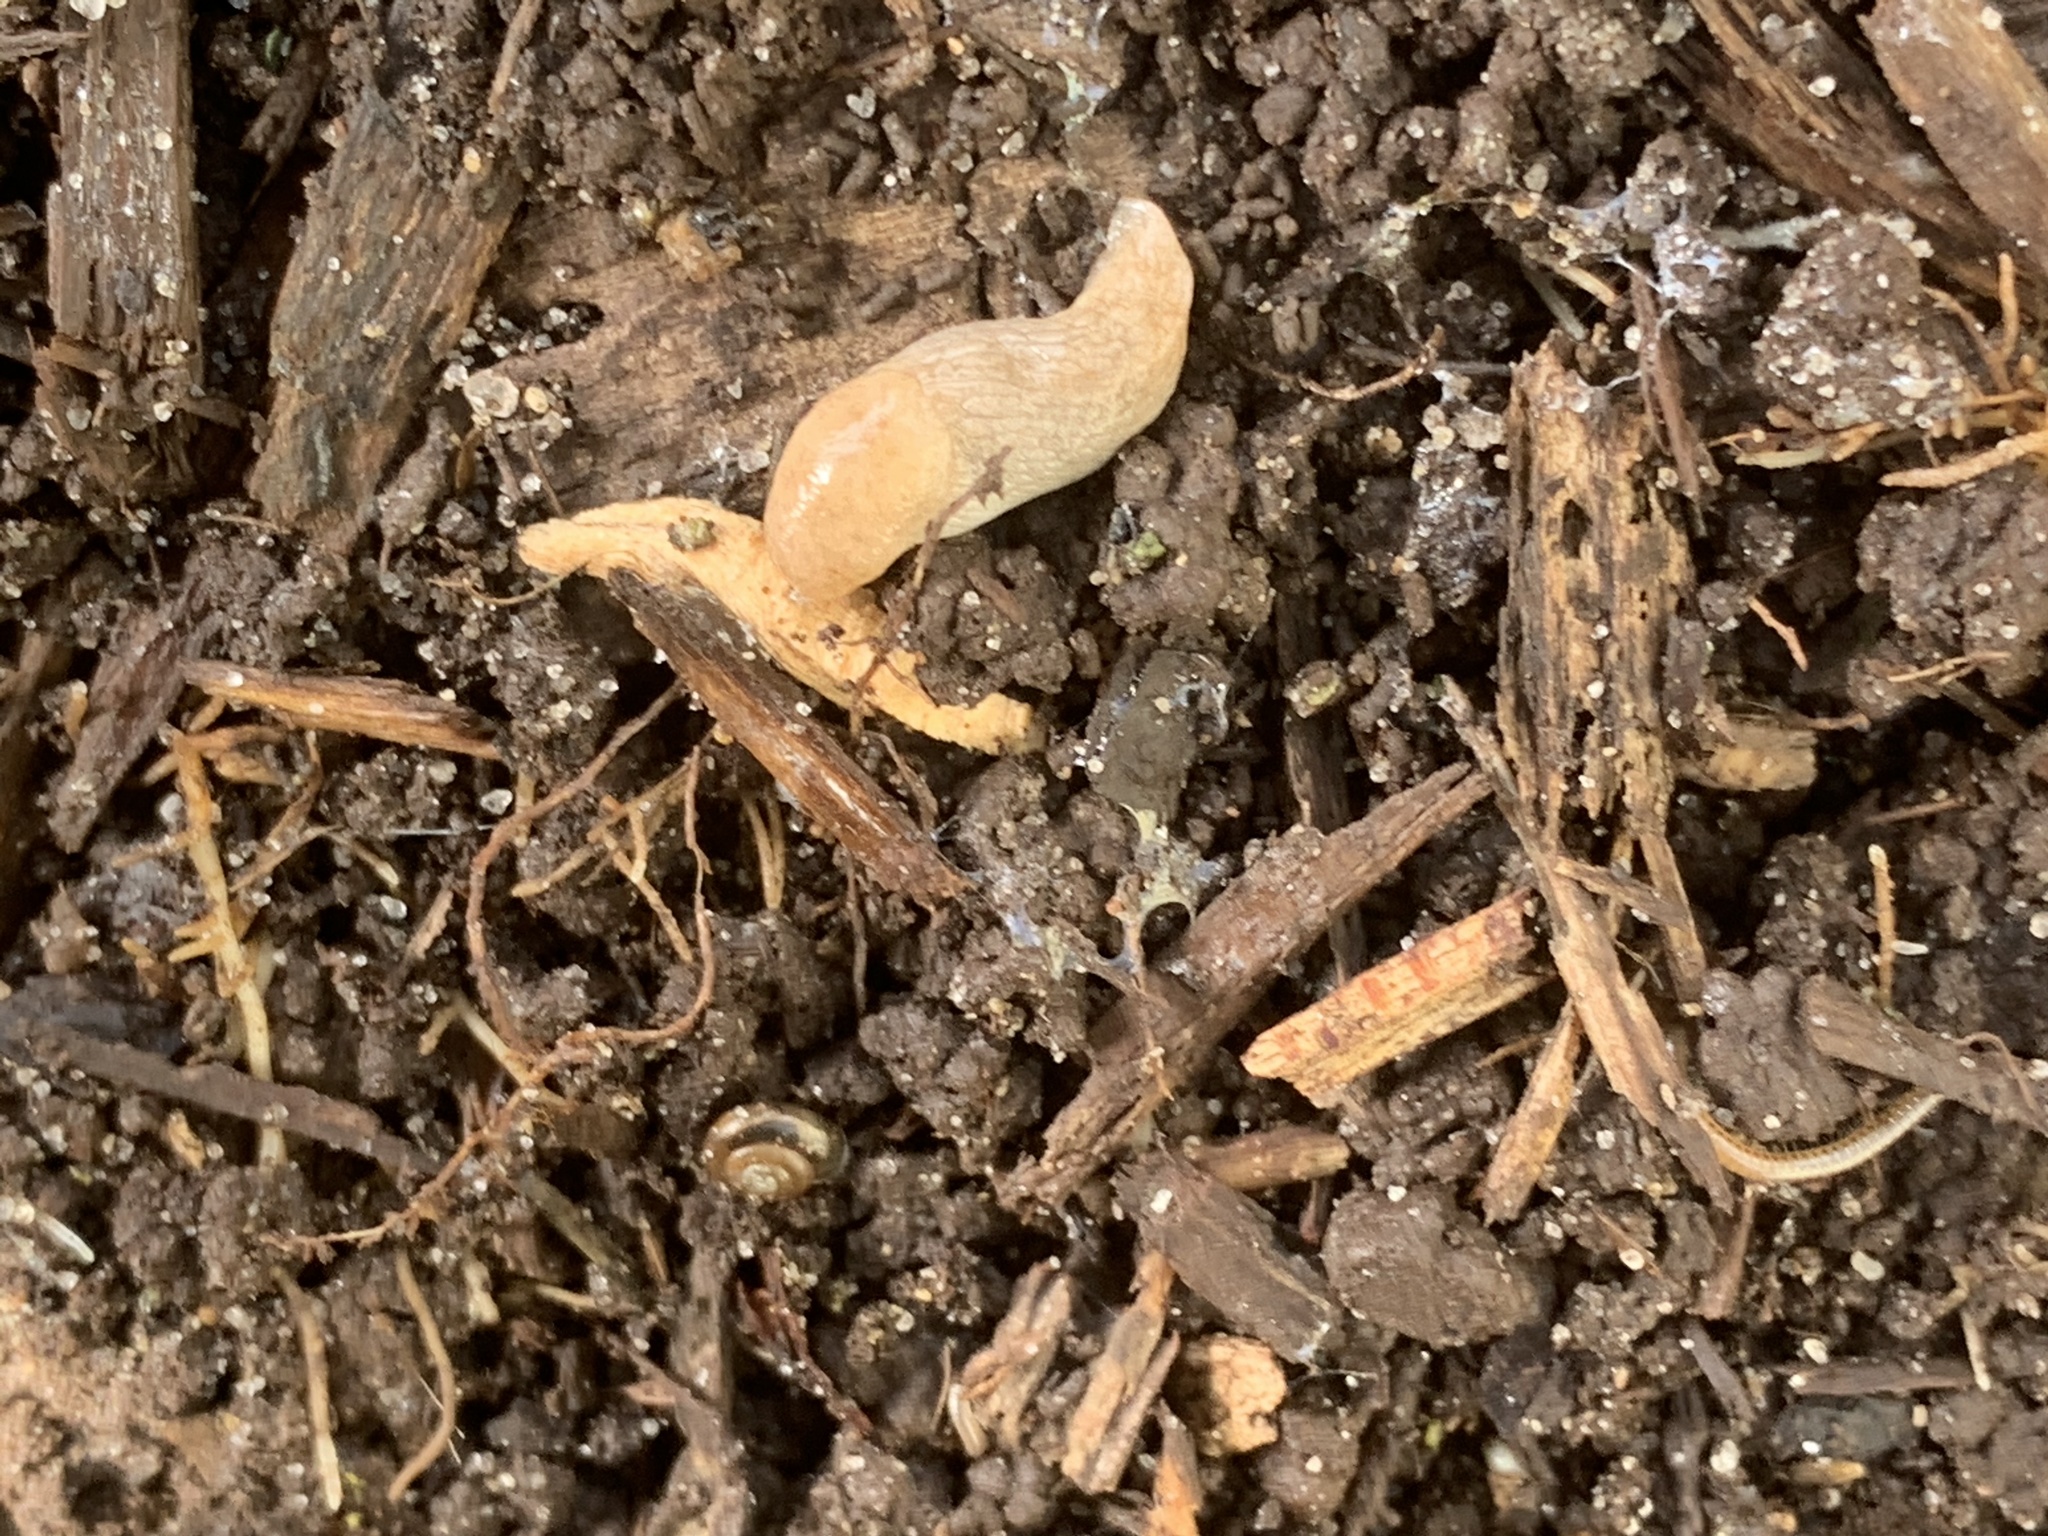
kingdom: Animalia
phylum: Mollusca
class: Gastropoda
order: Stylommatophora
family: Agriolimacidae
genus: Deroceras
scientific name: Deroceras reticulatum
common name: Gray field slug
